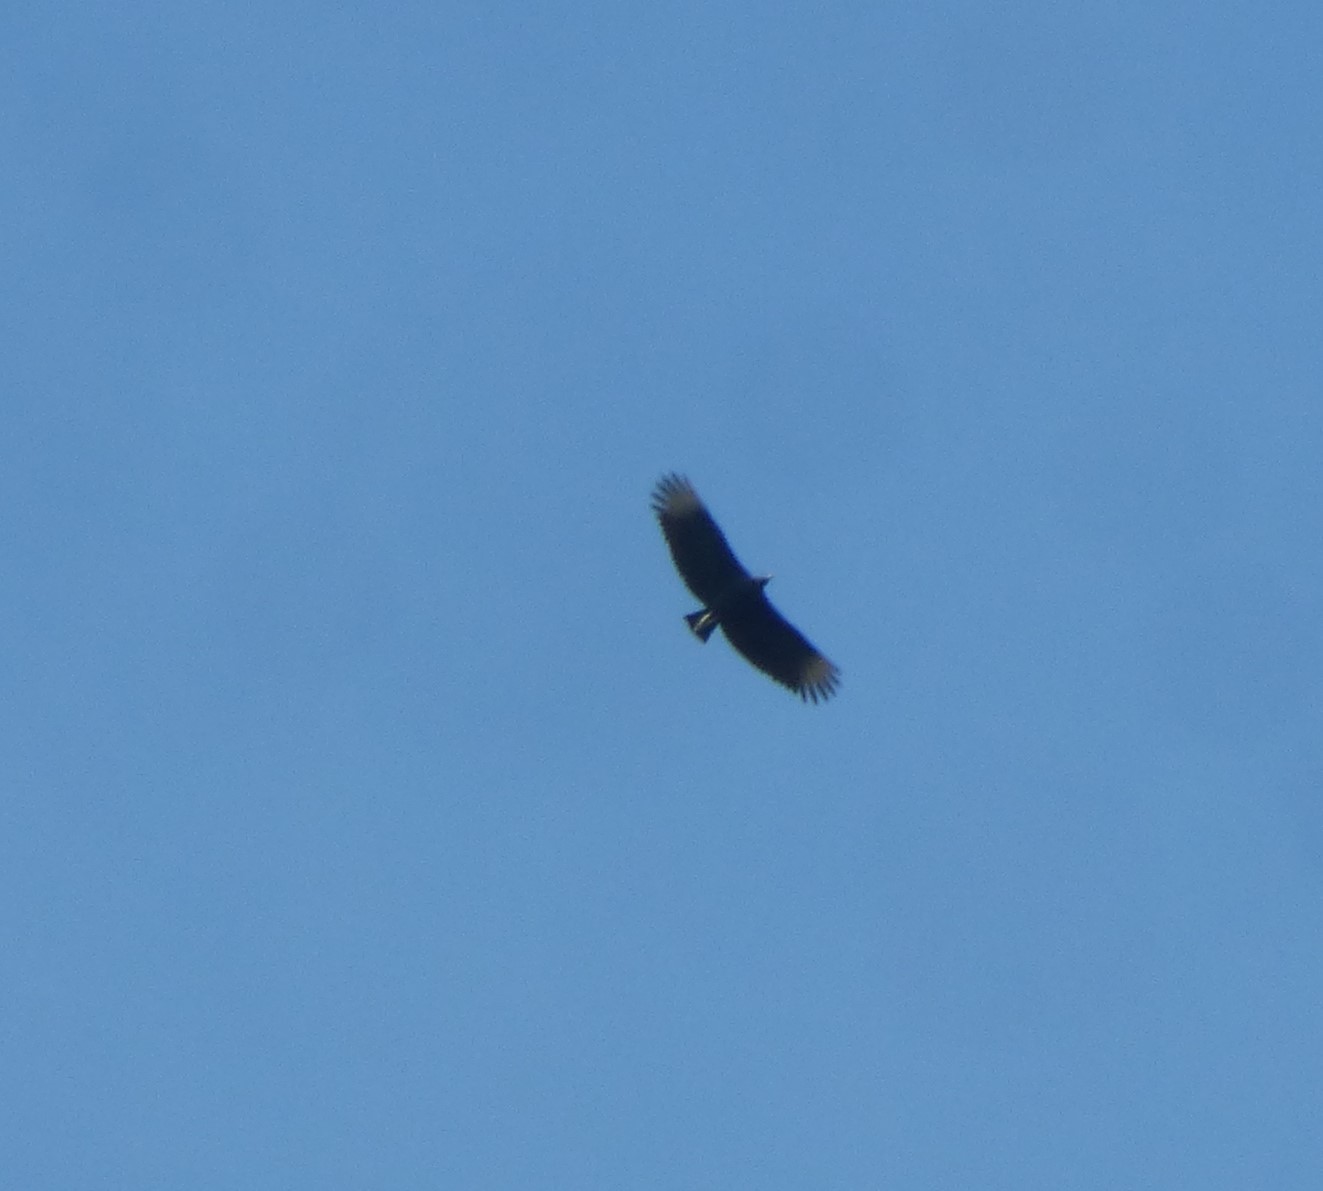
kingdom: Animalia
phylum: Chordata
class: Aves
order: Accipitriformes
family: Cathartidae
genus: Coragyps
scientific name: Coragyps atratus
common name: Black vulture
